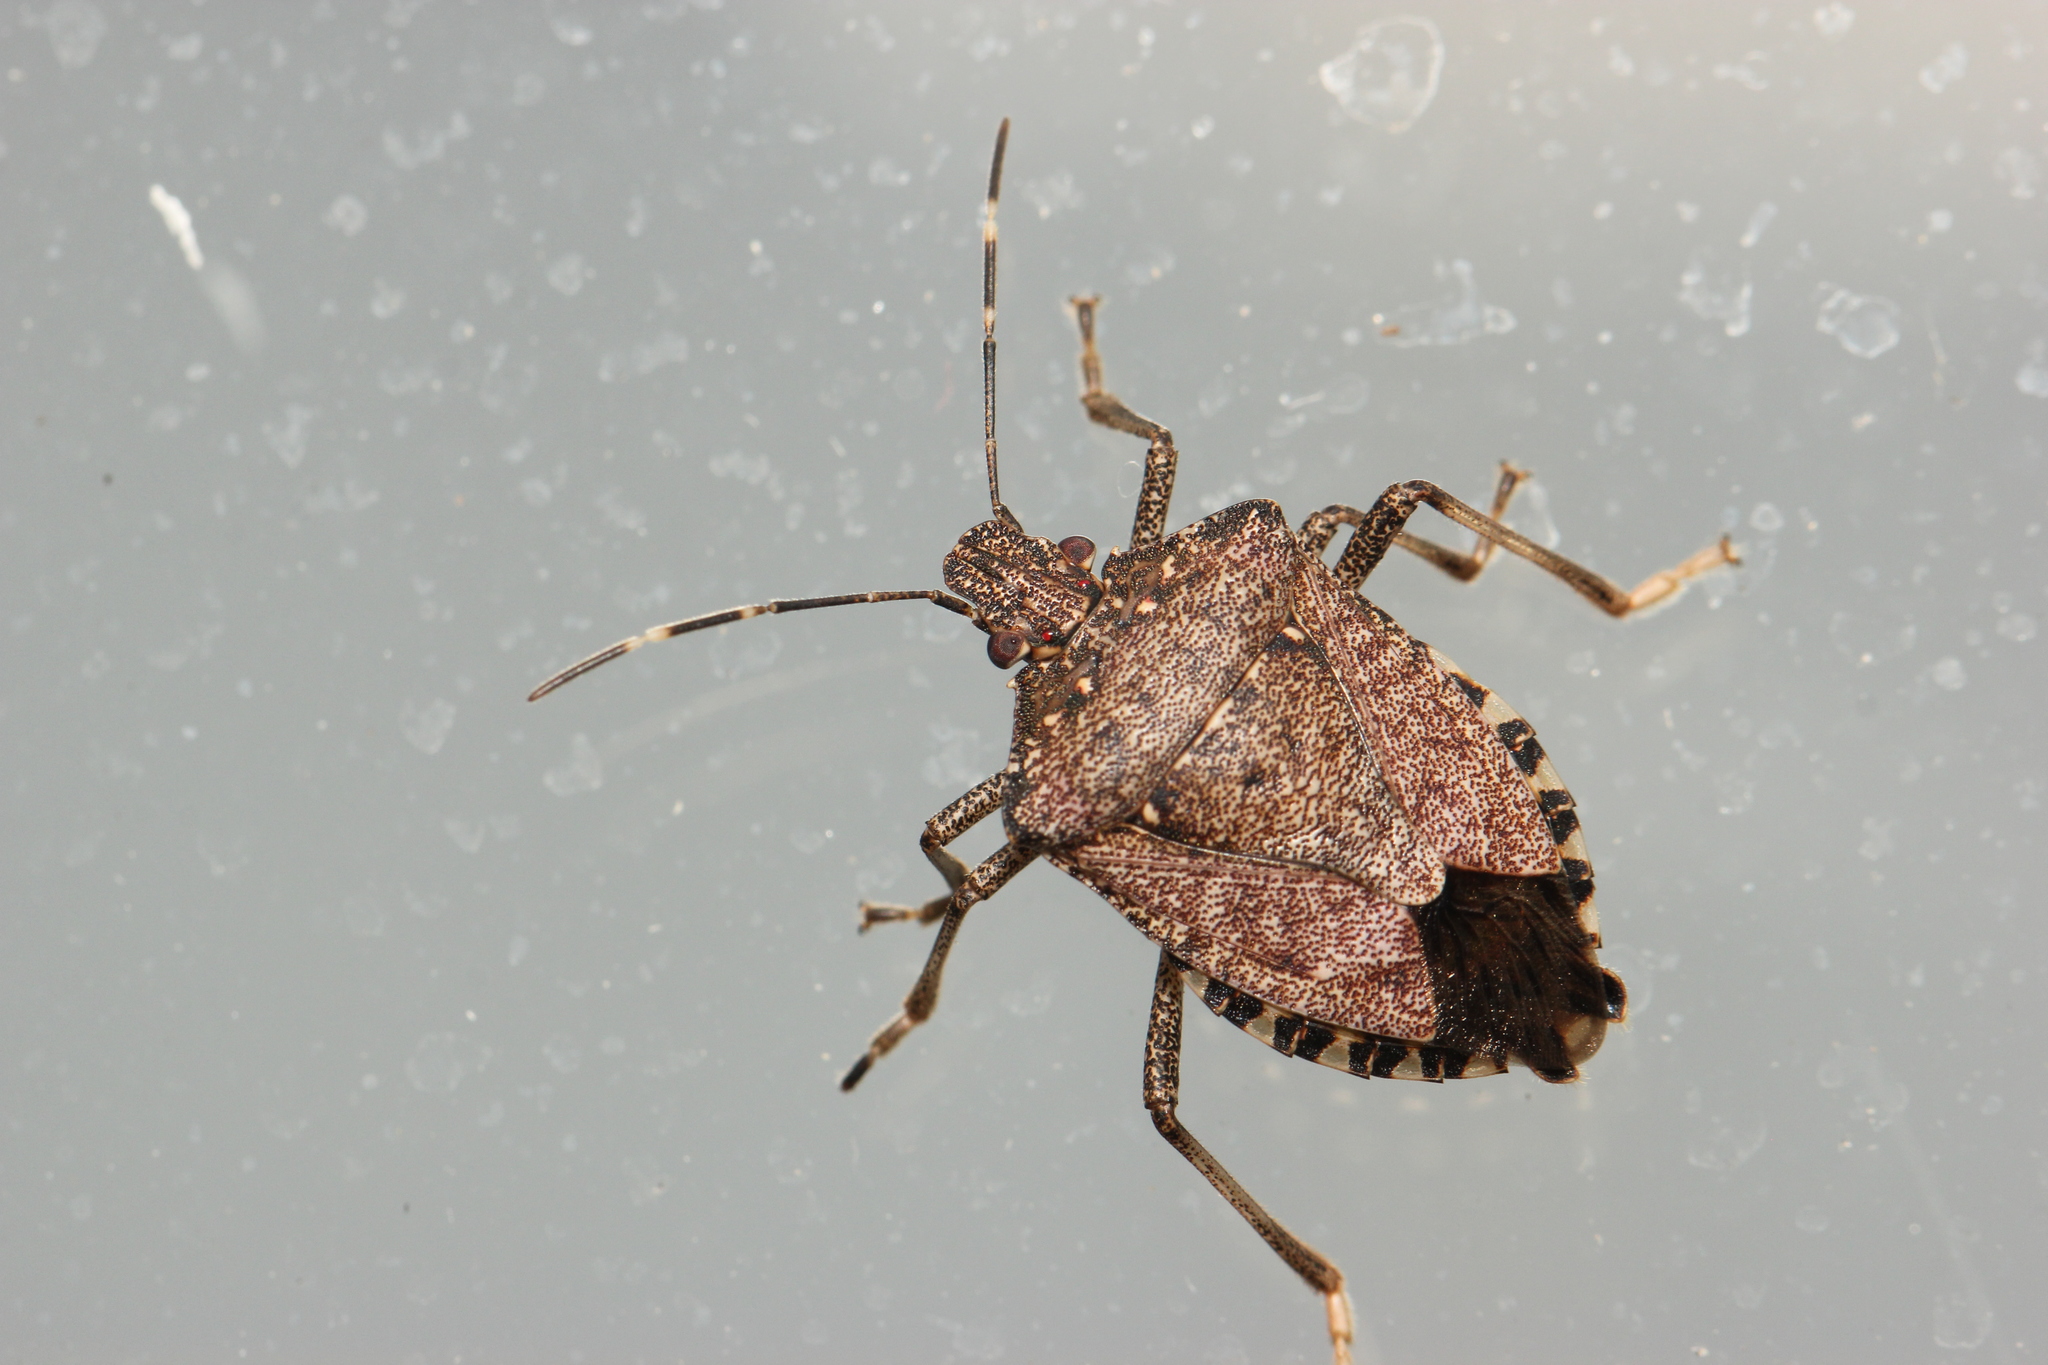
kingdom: Animalia
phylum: Arthropoda
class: Insecta
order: Hemiptera
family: Pentatomidae
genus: Halyomorpha
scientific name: Halyomorpha halys
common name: Brown marmorated stink bug
